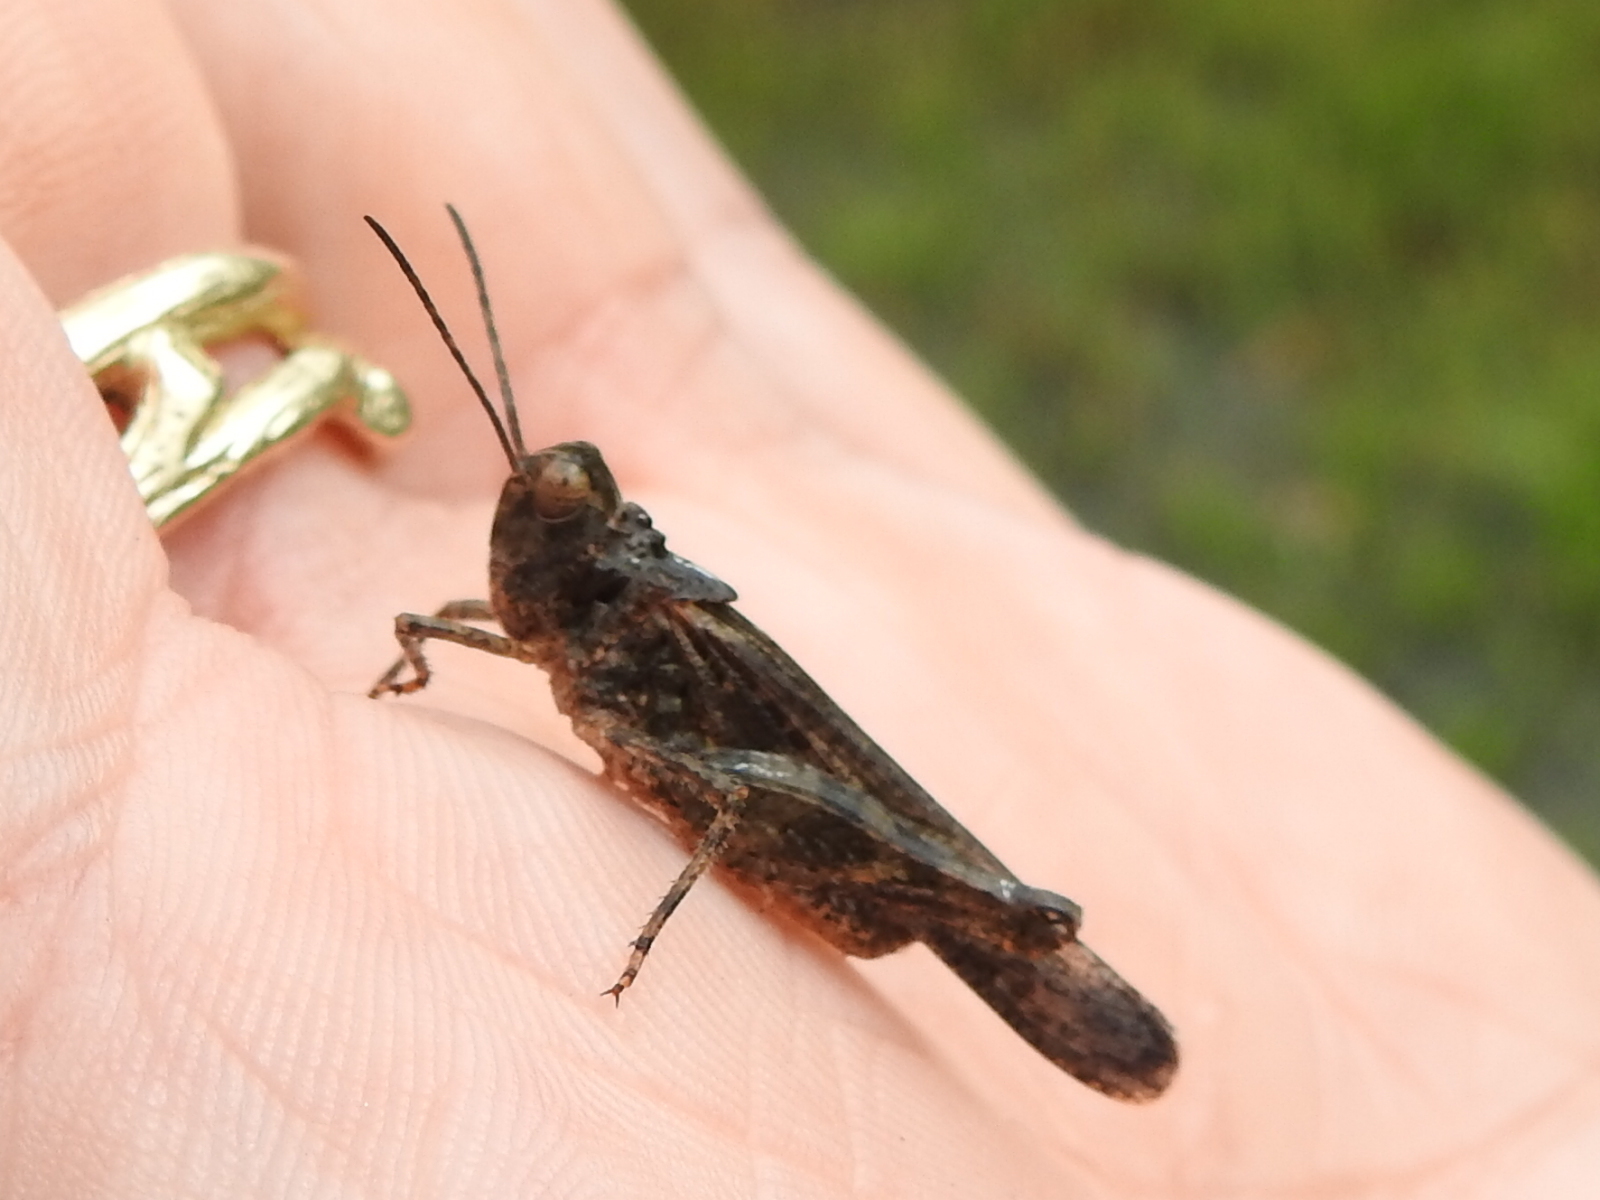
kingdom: Animalia
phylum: Arthropoda
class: Insecta
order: Orthoptera
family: Acrididae
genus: Trachyrhachys
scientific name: Trachyrhachys kiowa
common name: Kiowa grasshopper
